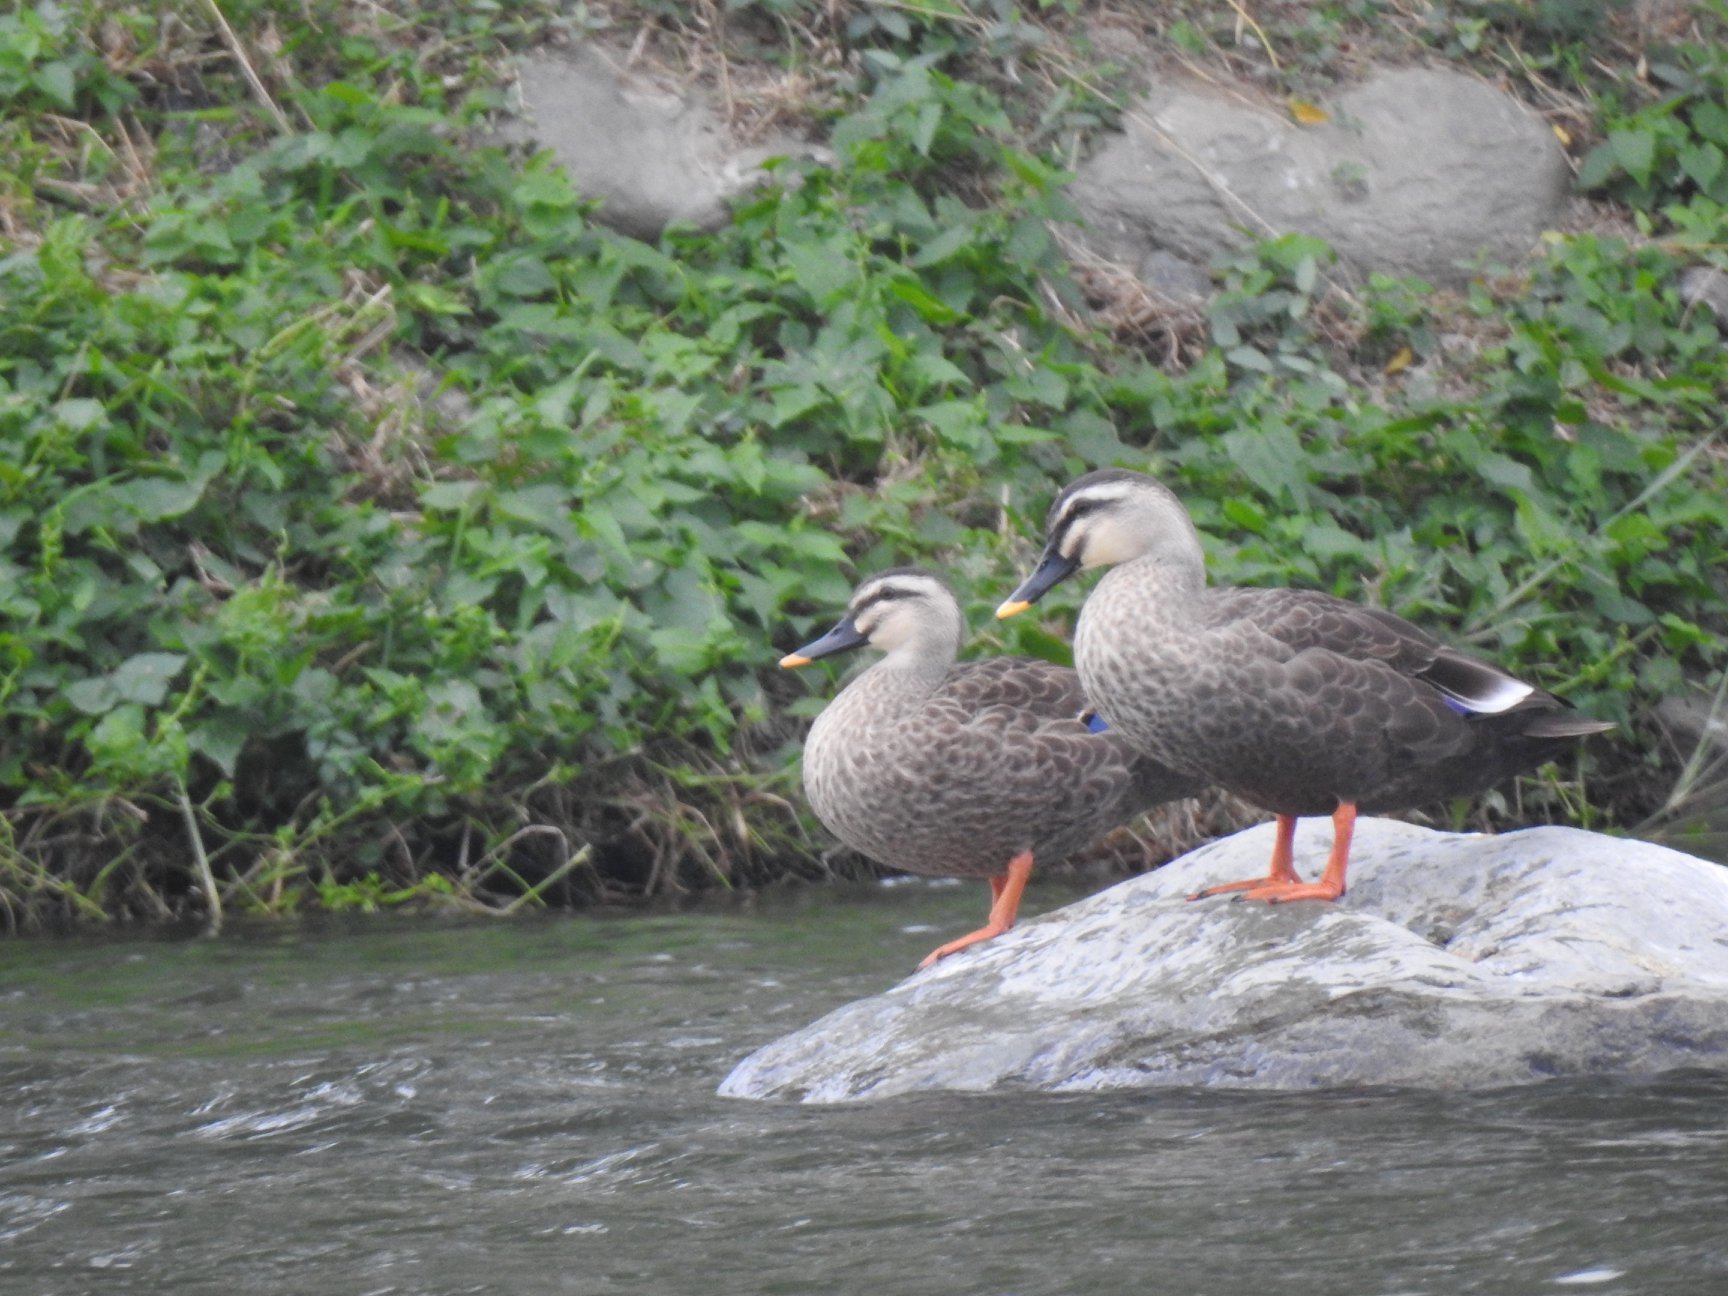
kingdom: Animalia
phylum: Chordata
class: Aves
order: Anseriformes
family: Anatidae
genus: Anas
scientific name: Anas zonorhyncha
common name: Eastern spot-billed duck
